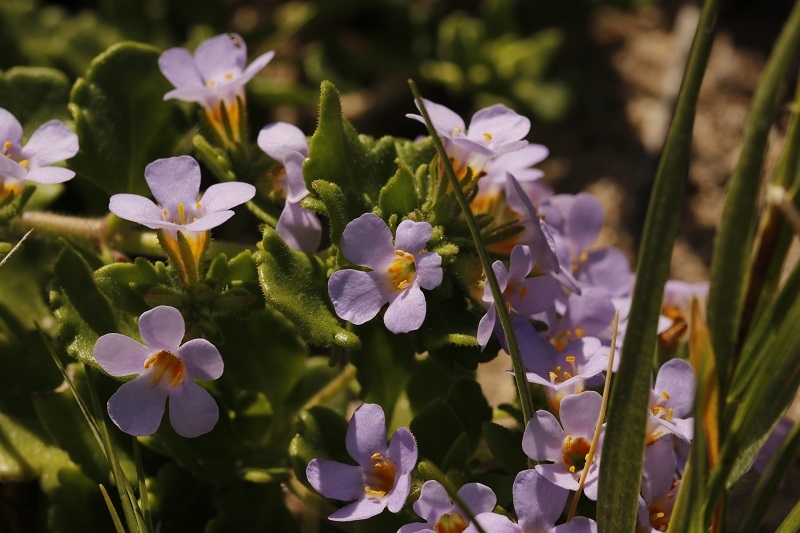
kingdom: Plantae
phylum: Tracheophyta
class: Magnoliopsida
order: Lamiales
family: Scrophulariaceae
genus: Chaenostoma
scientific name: Chaenostoma polyanthum
